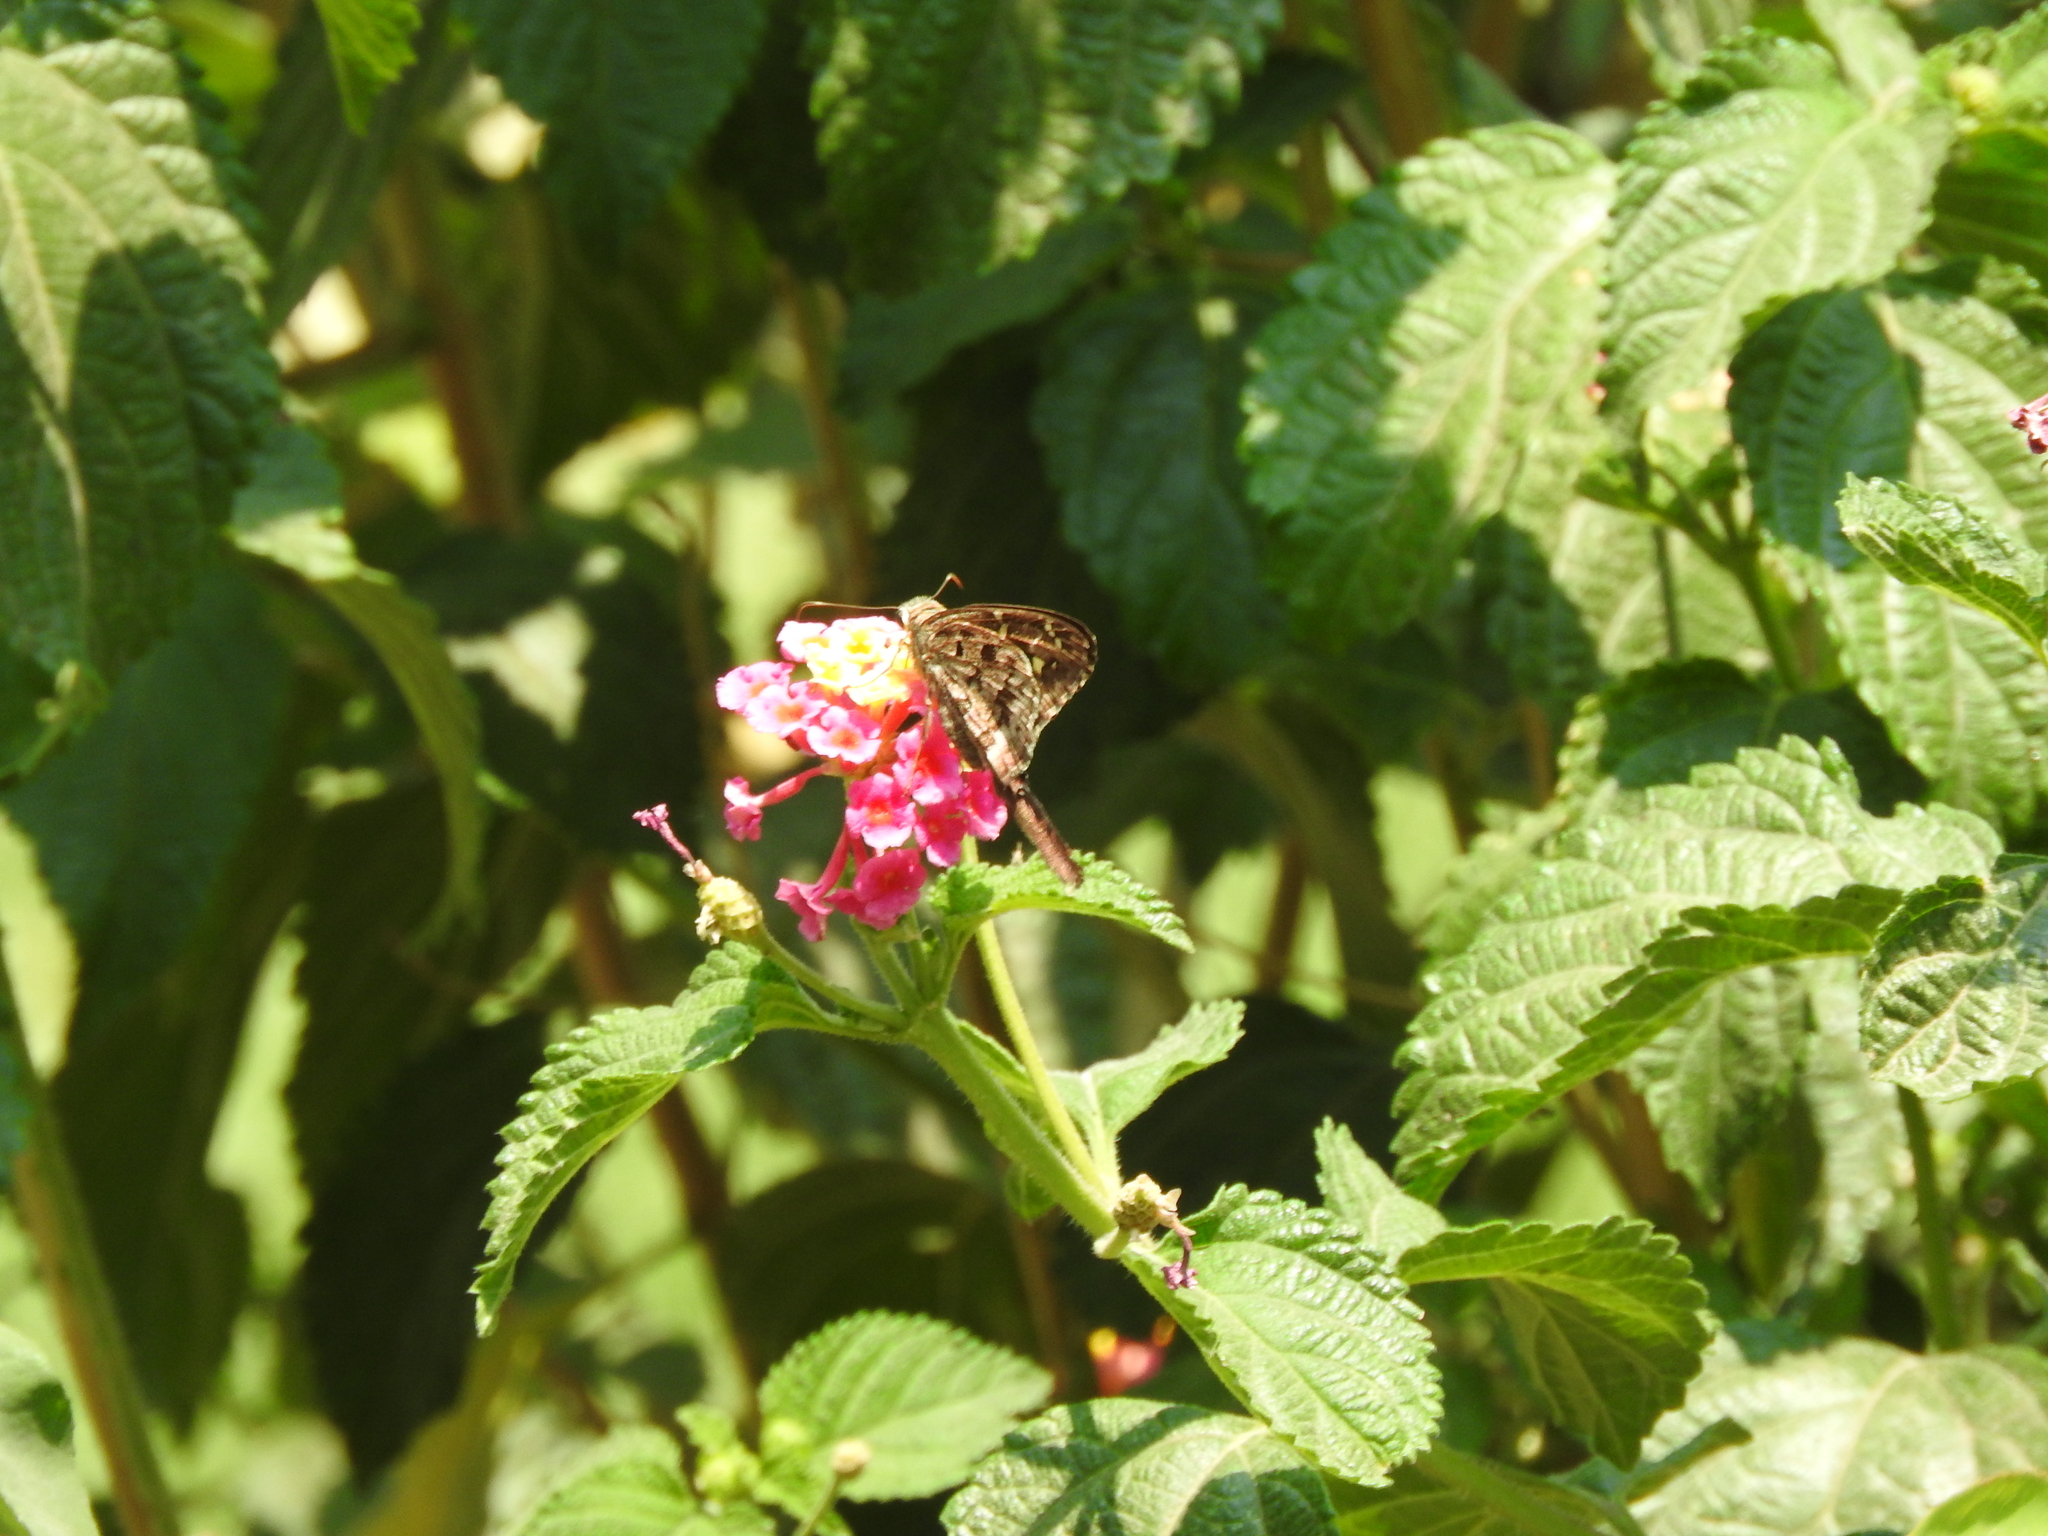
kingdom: Animalia
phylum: Arthropoda
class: Insecta
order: Lepidoptera
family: Hesperiidae
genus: Thorybes
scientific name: Thorybes
